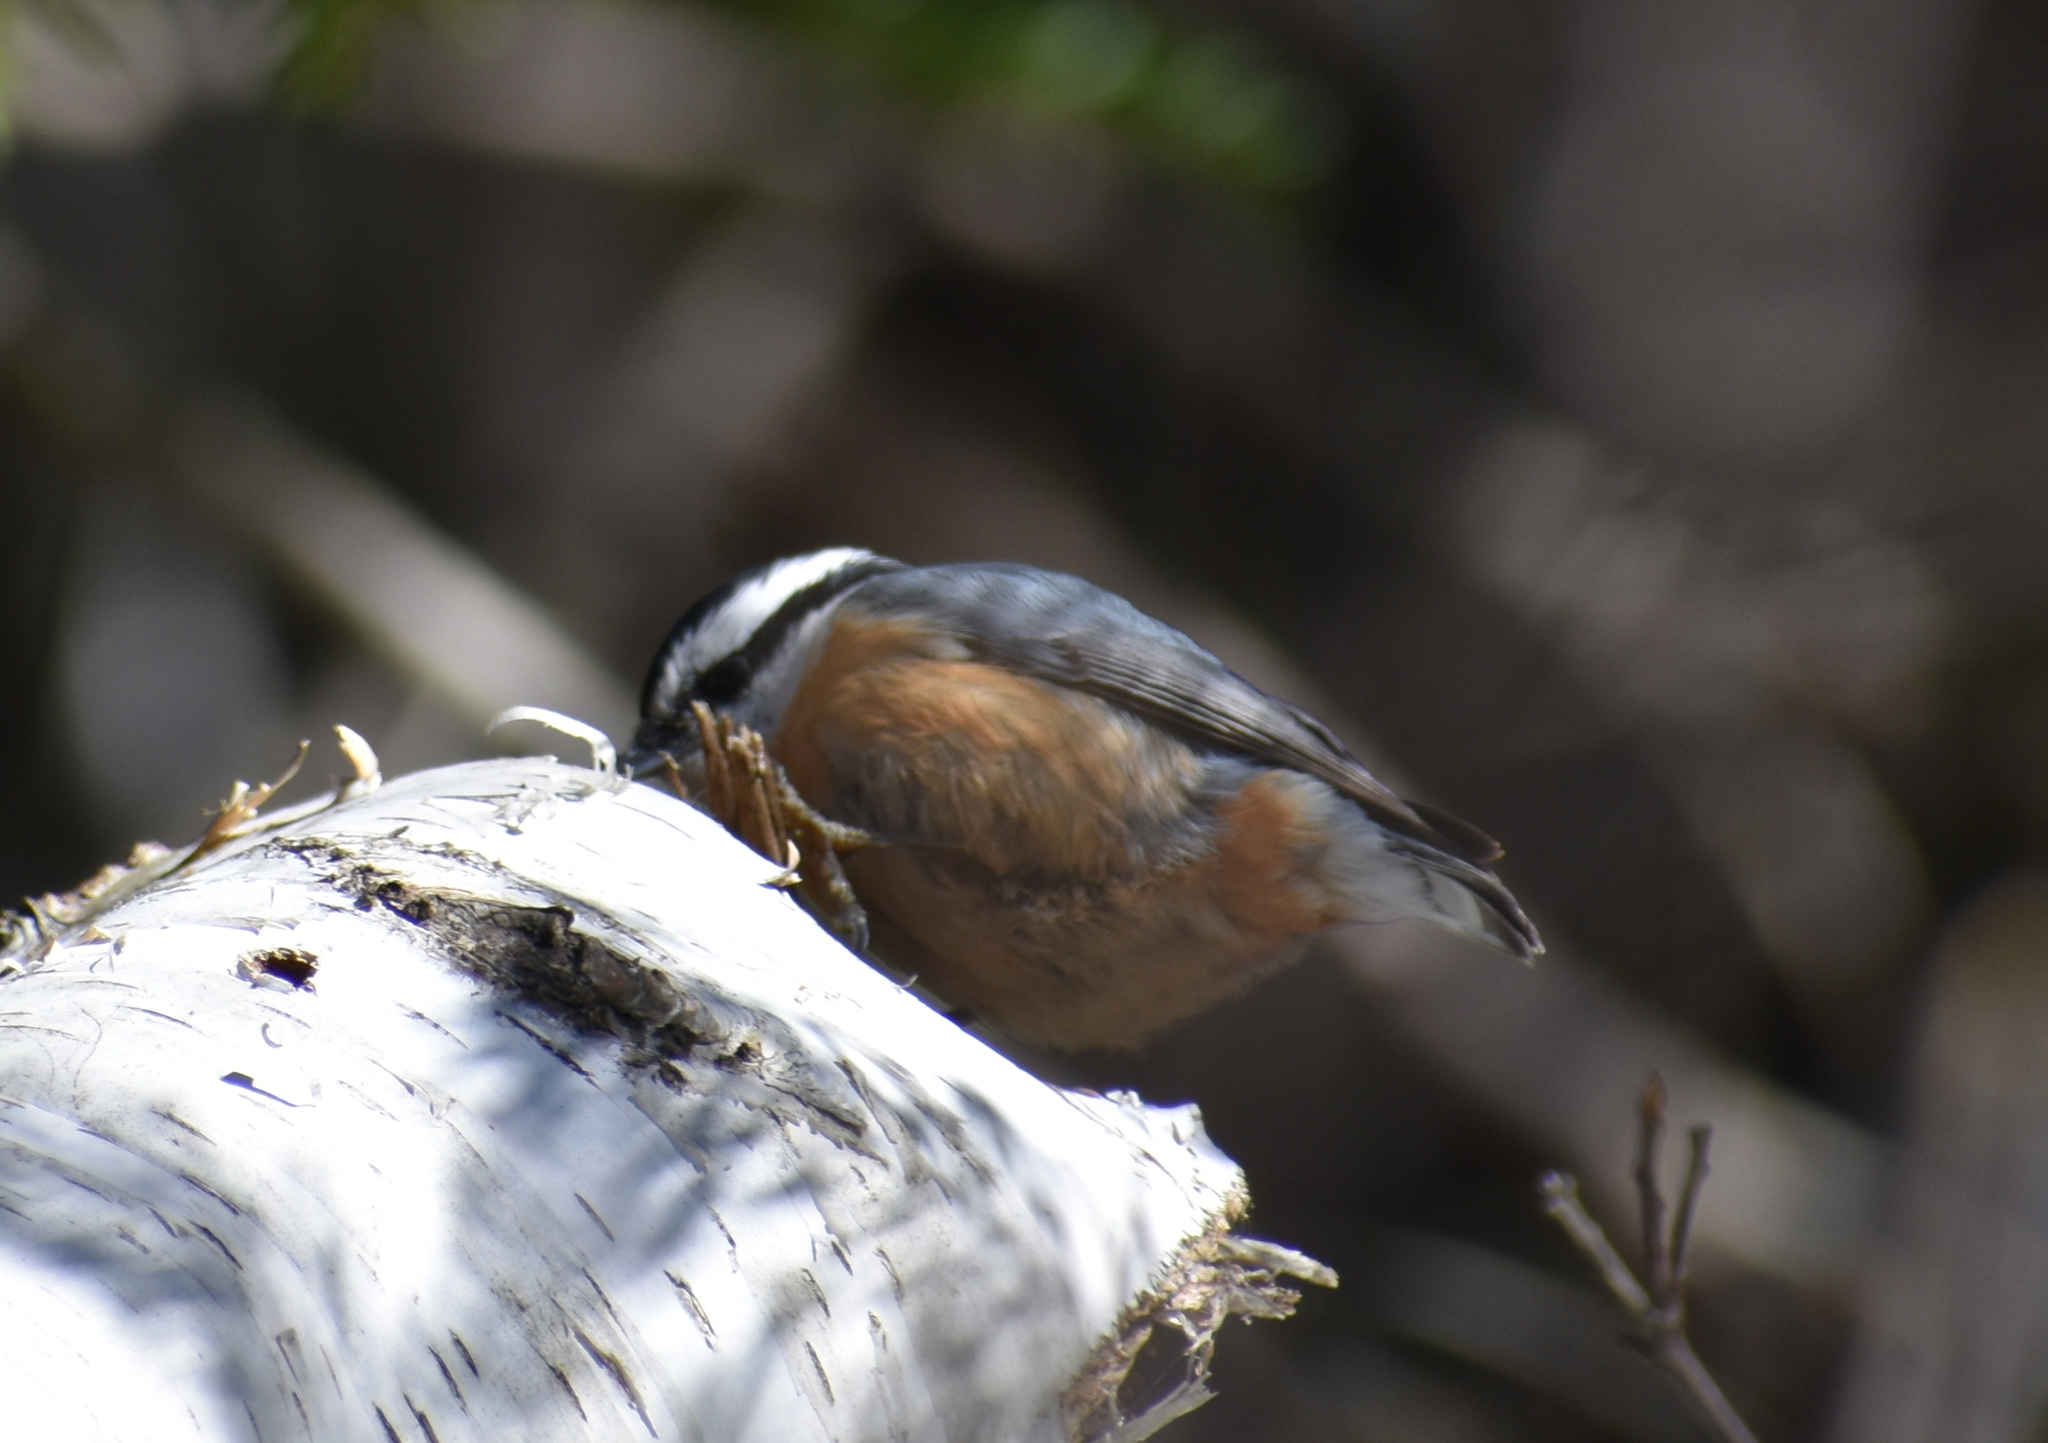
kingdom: Animalia
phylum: Chordata
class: Aves
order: Passeriformes
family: Sittidae
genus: Sitta
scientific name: Sitta canadensis
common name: Red-breasted nuthatch
